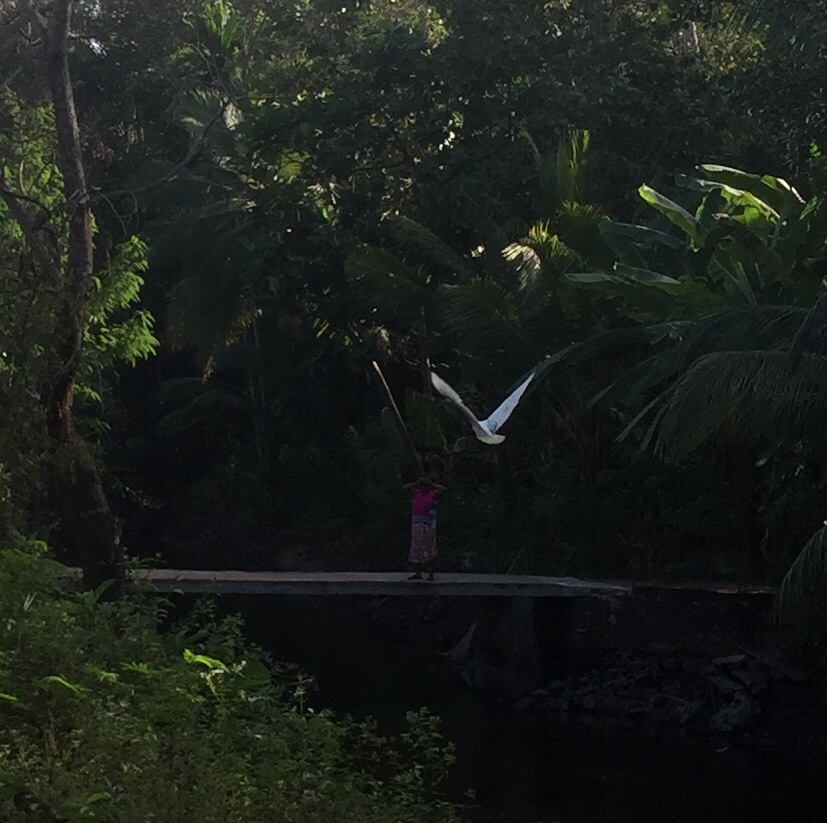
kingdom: Animalia
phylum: Chordata
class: Aves
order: Pelecaniformes
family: Threskiornithidae
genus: Threskiornis
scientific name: Threskiornis melanocephalus
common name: Black-headed ibis
